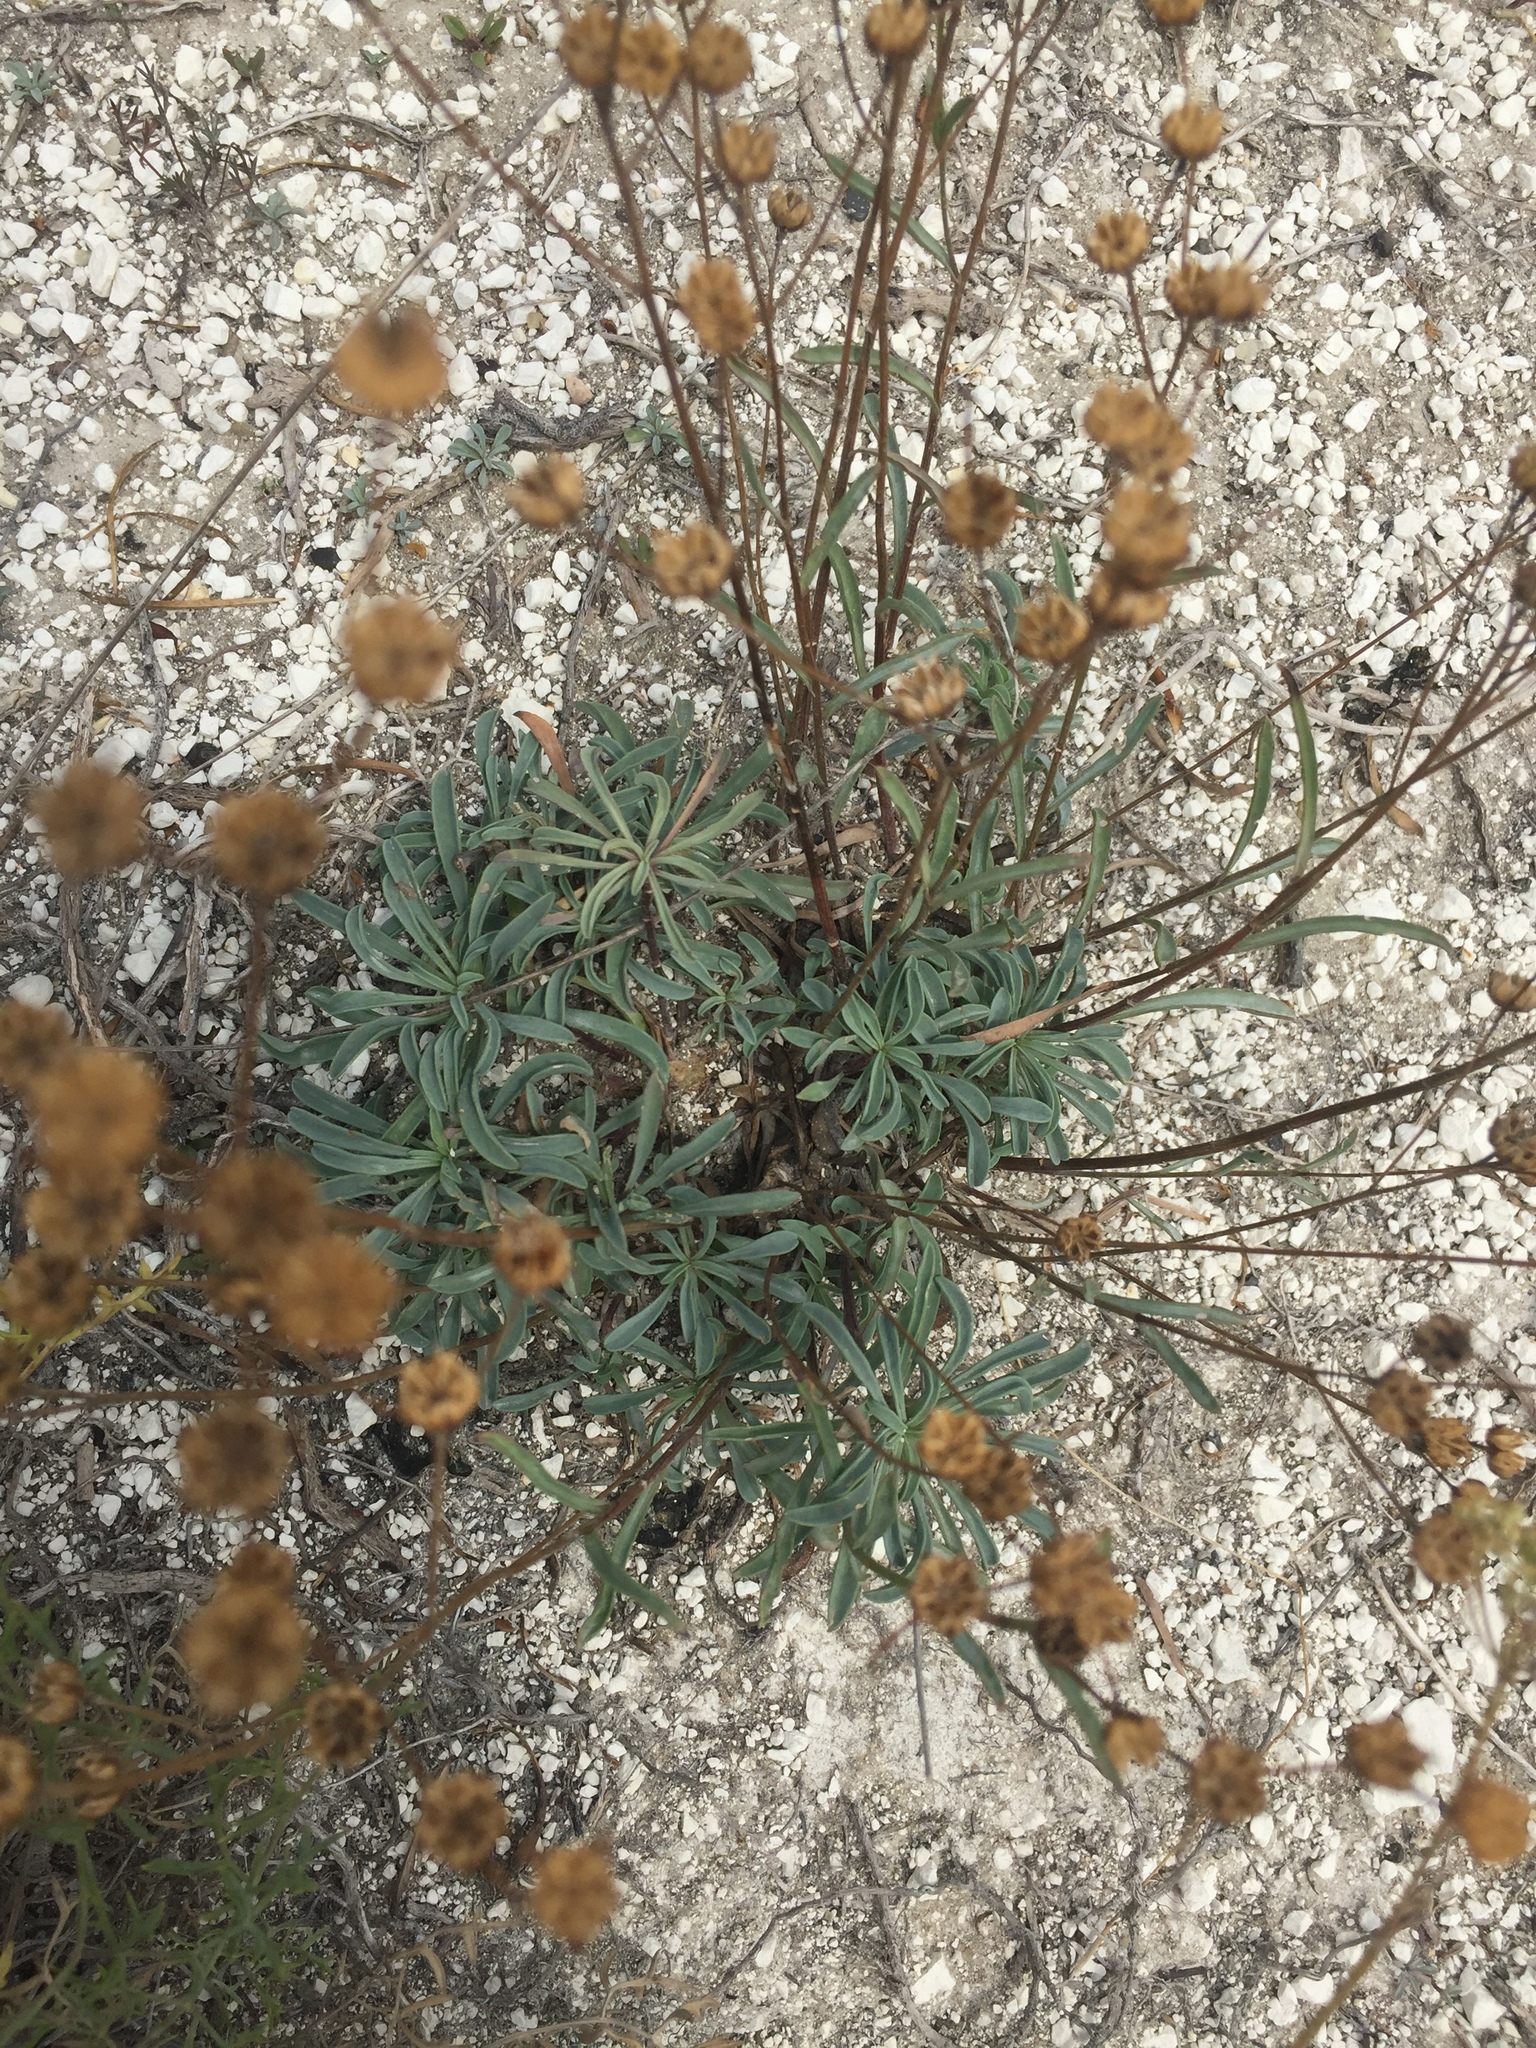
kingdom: Plantae
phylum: Tracheophyta
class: Magnoliopsida
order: Malpighiales
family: Linaceae
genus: Linum
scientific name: Linum ucranicum
